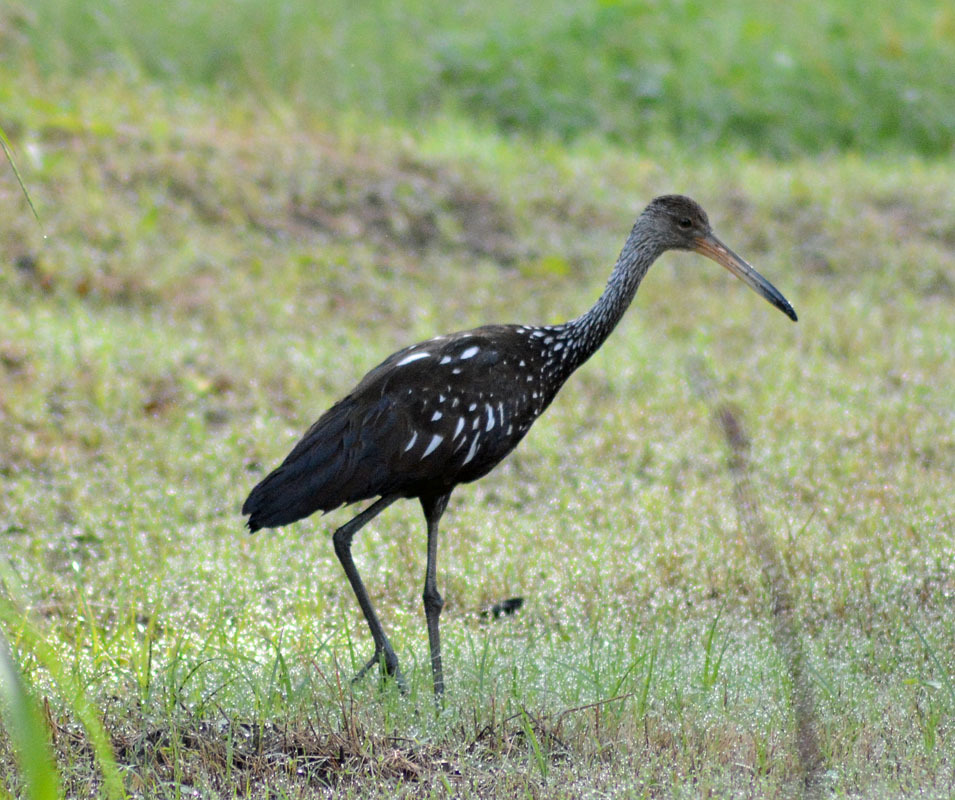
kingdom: Animalia
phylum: Chordata
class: Aves
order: Gruiformes
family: Aramidae
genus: Aramus
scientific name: Aramus guarauna
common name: Limpkin
